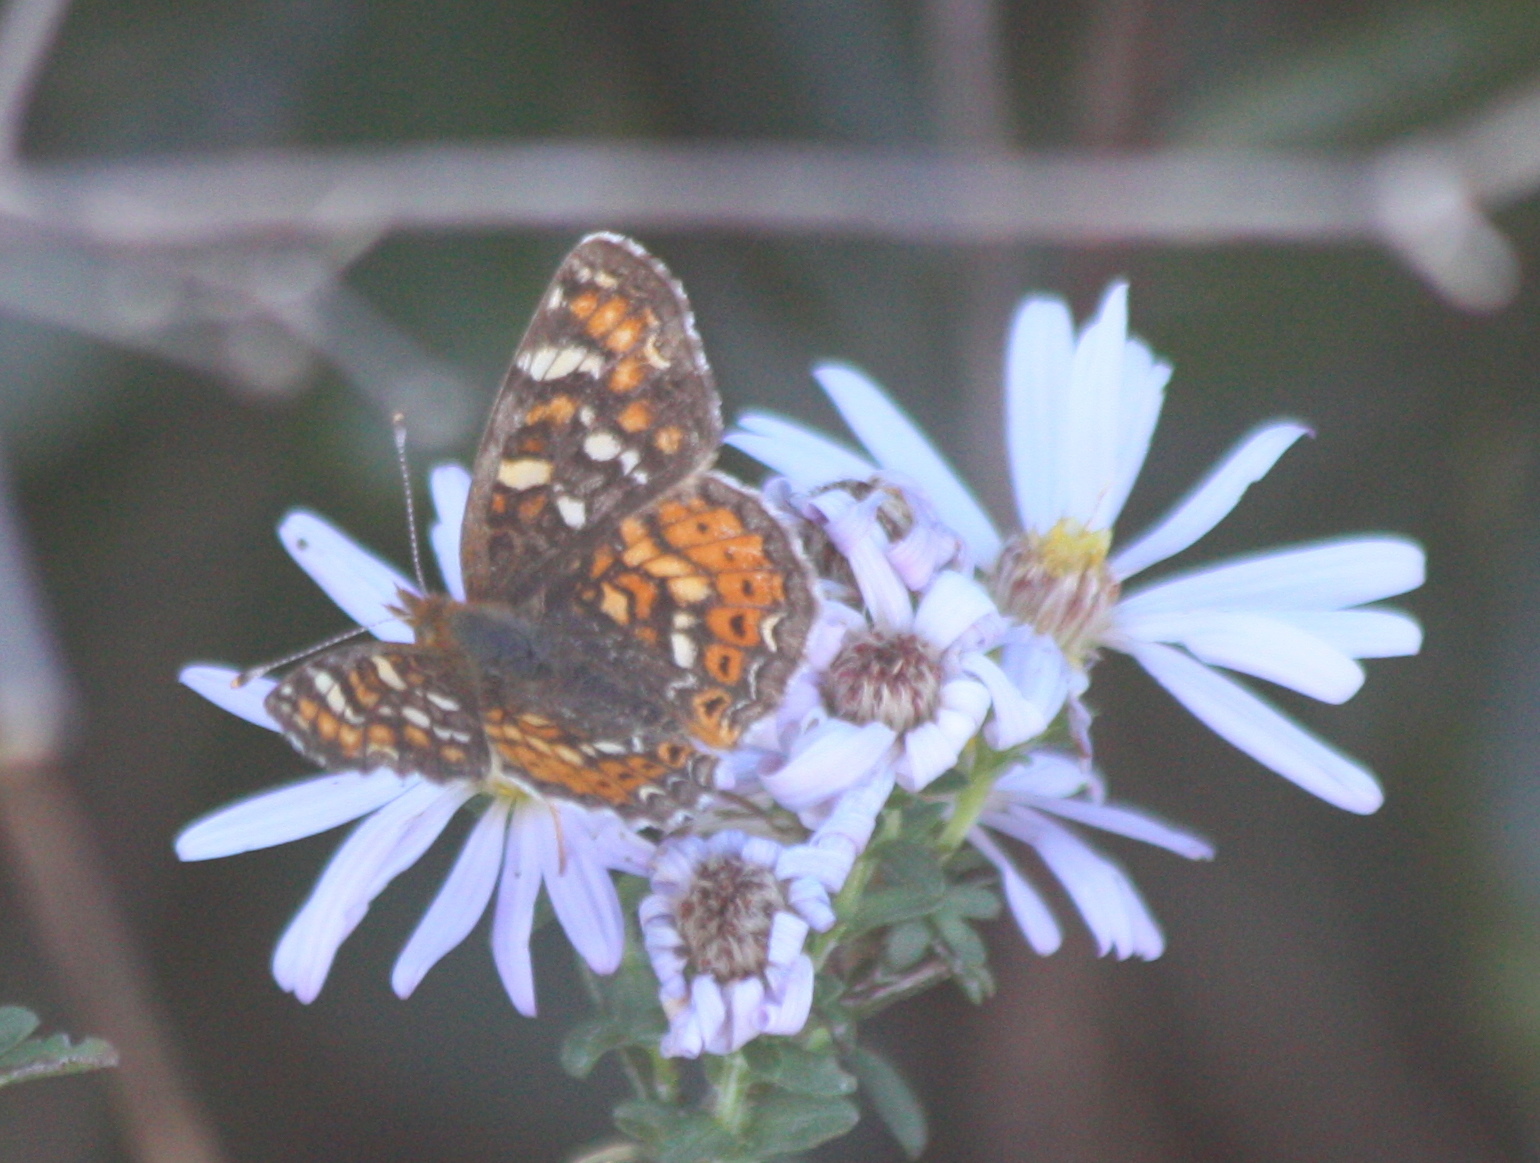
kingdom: Animalia
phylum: Arthropoda
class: Insecta
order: Lepidoptera
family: Nymphalidae
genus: Phyciodes
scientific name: Phyciodes tharos
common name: Pearl crescent
